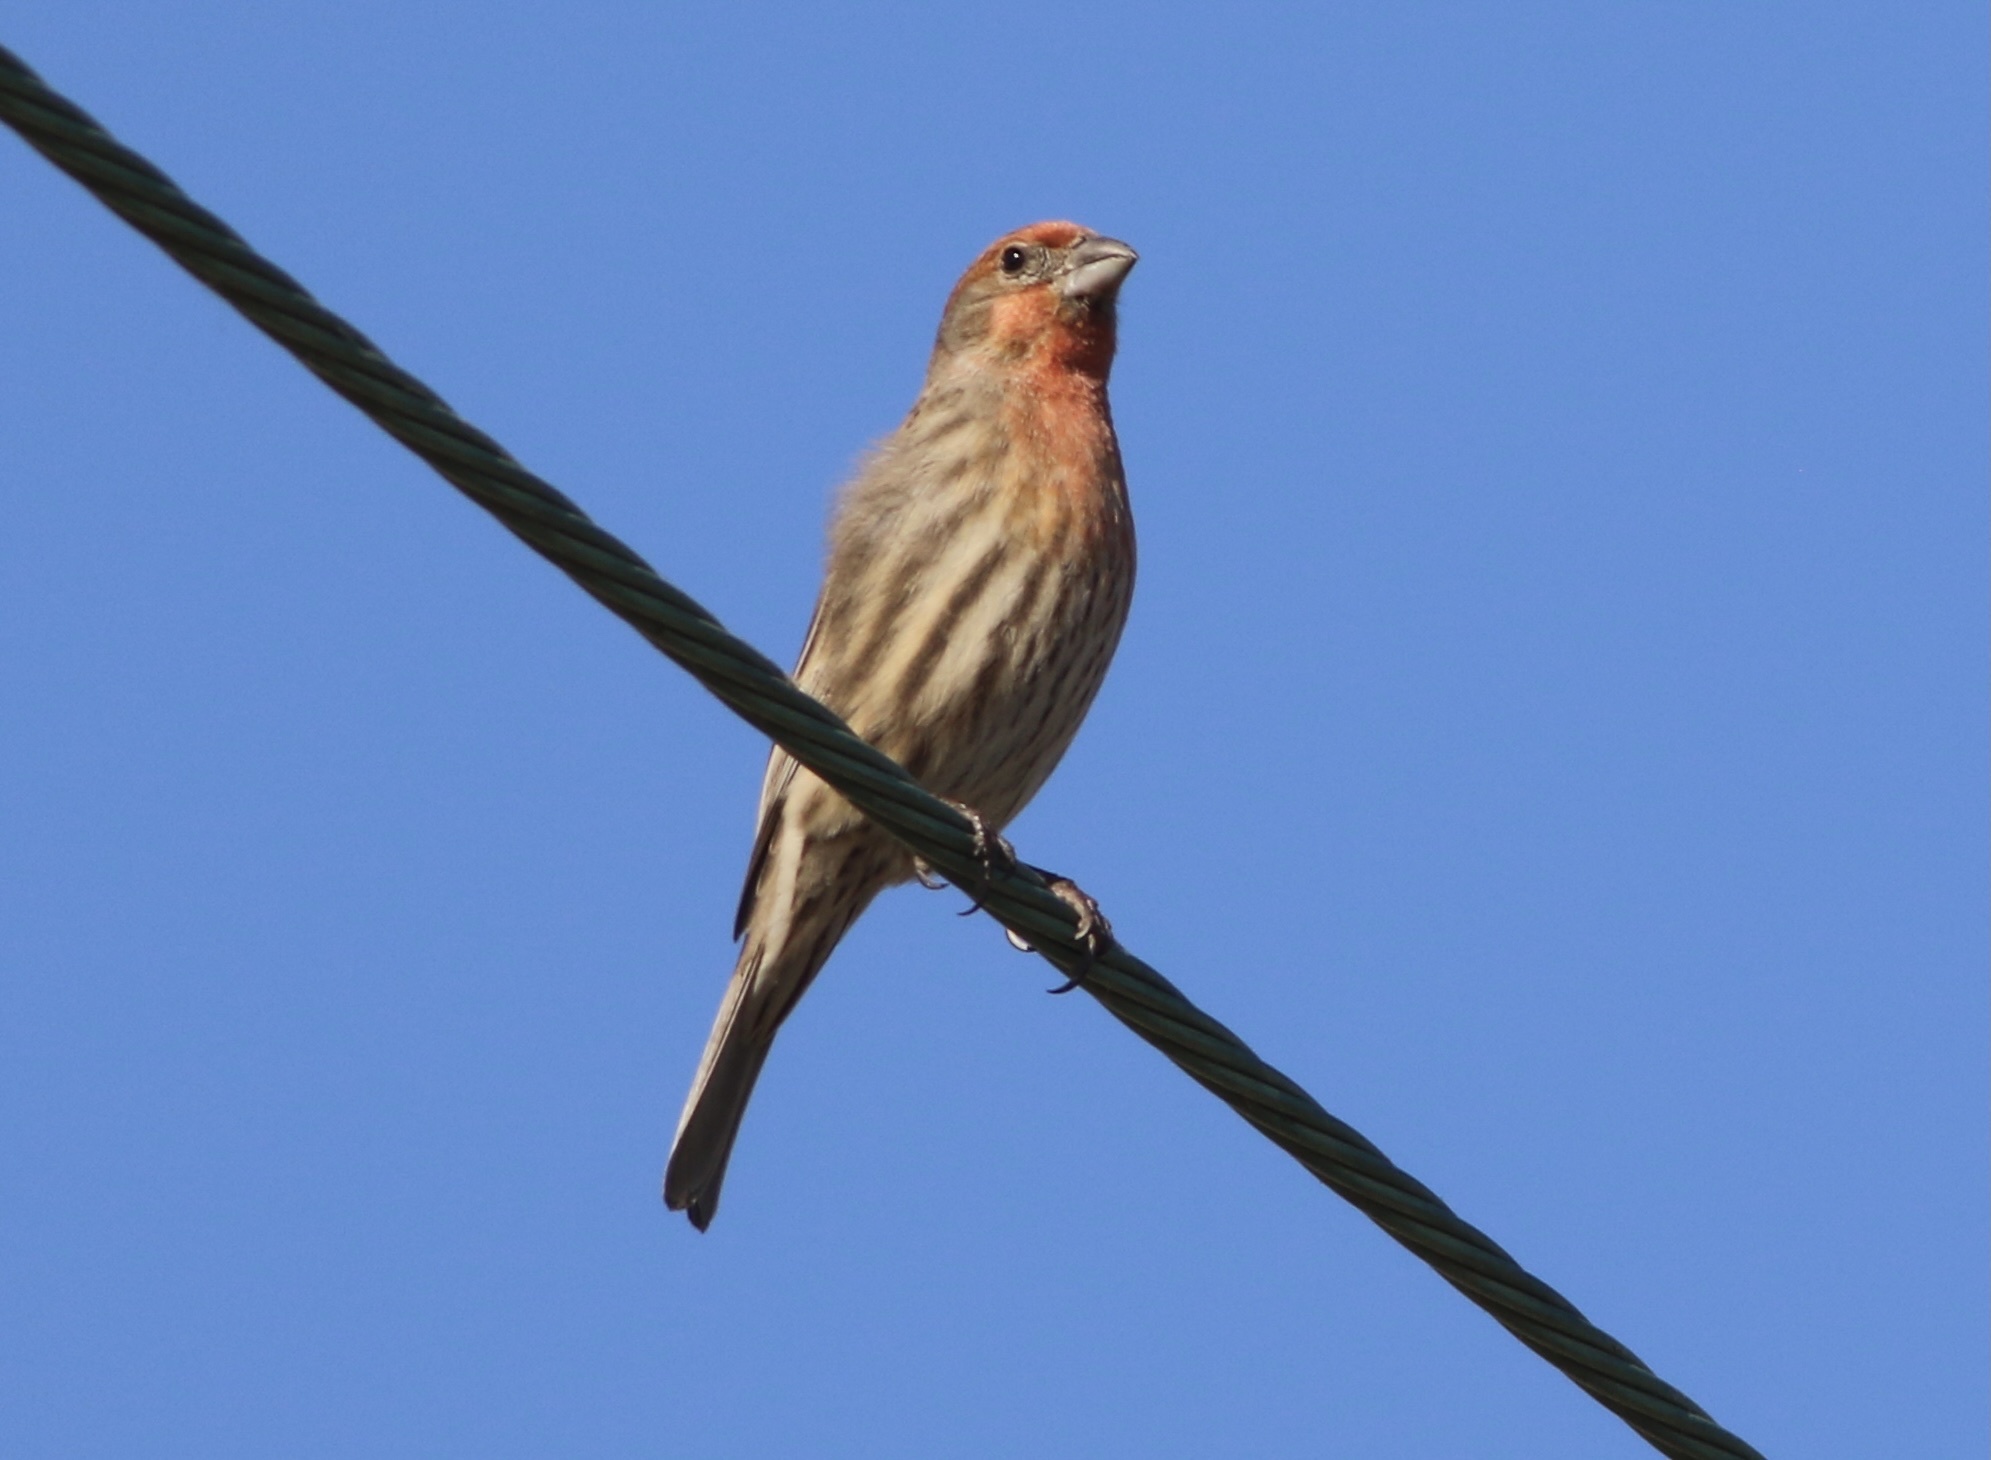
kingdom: Animalia
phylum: Chordata
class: Aves
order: Passeriformes
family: Fringillidae
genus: Haemorhous
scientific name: Haemorhous mexicanus
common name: House finch
